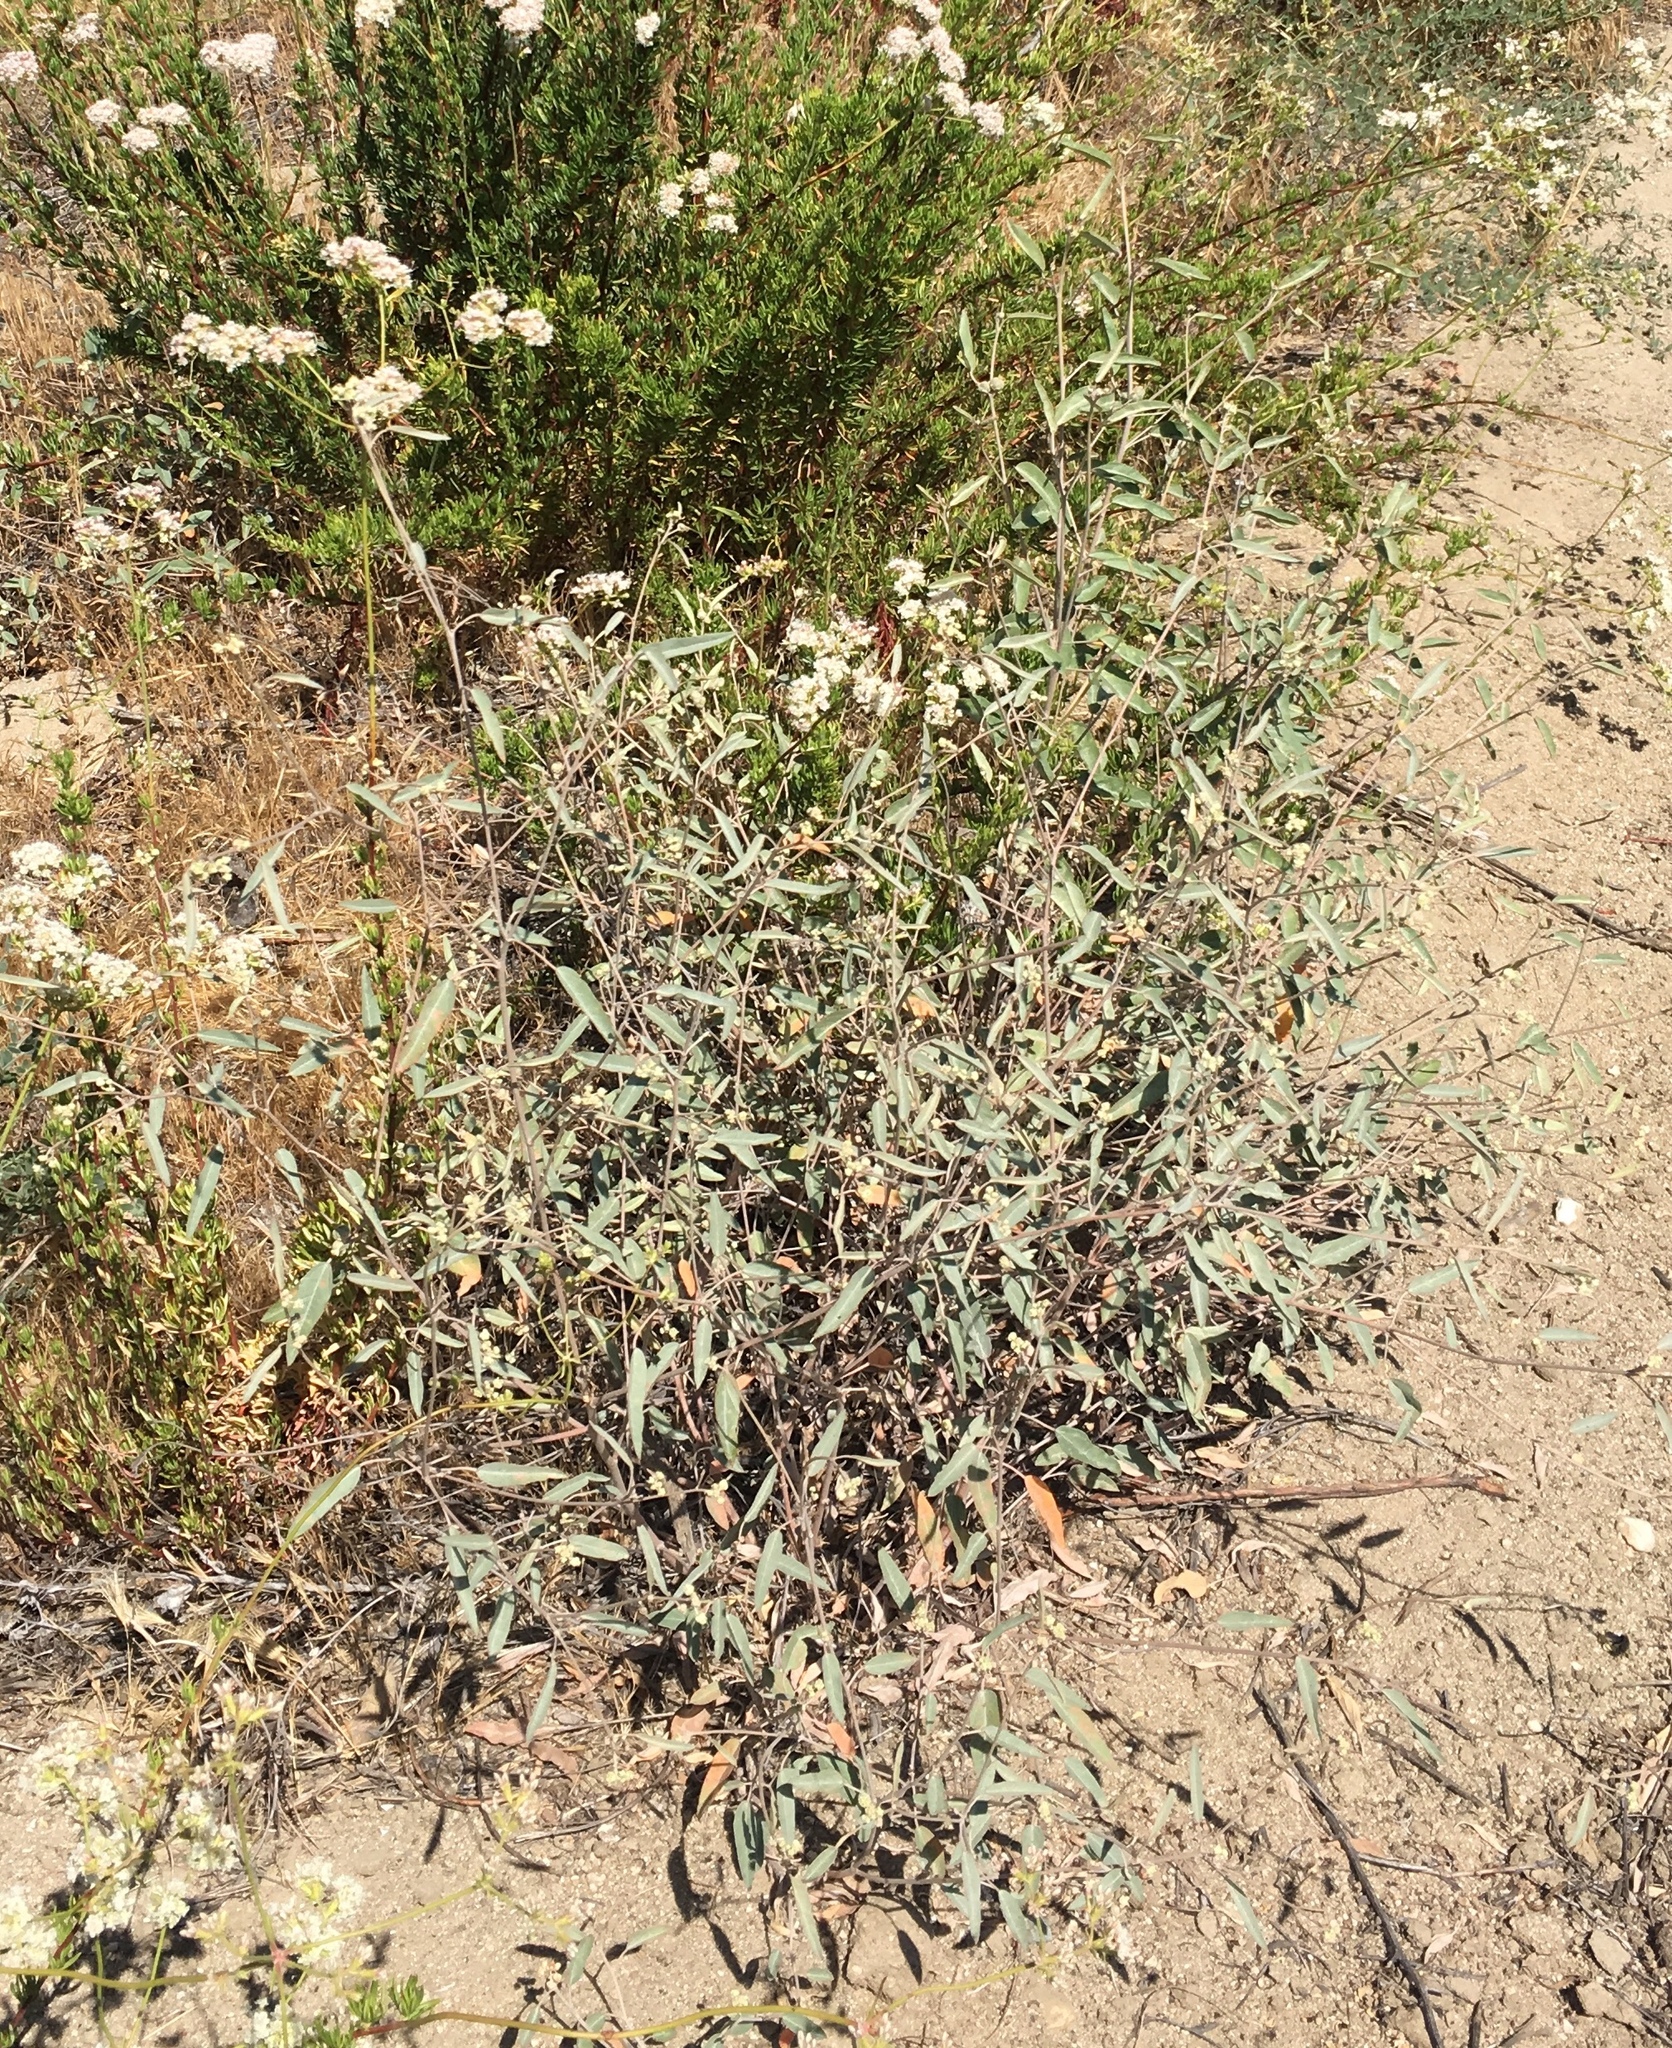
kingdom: Plantae
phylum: Tracheophyta
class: Magnoliopsida
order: Malpighiales
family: Euphorbiaceae
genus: Croton
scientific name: Croton californicus
